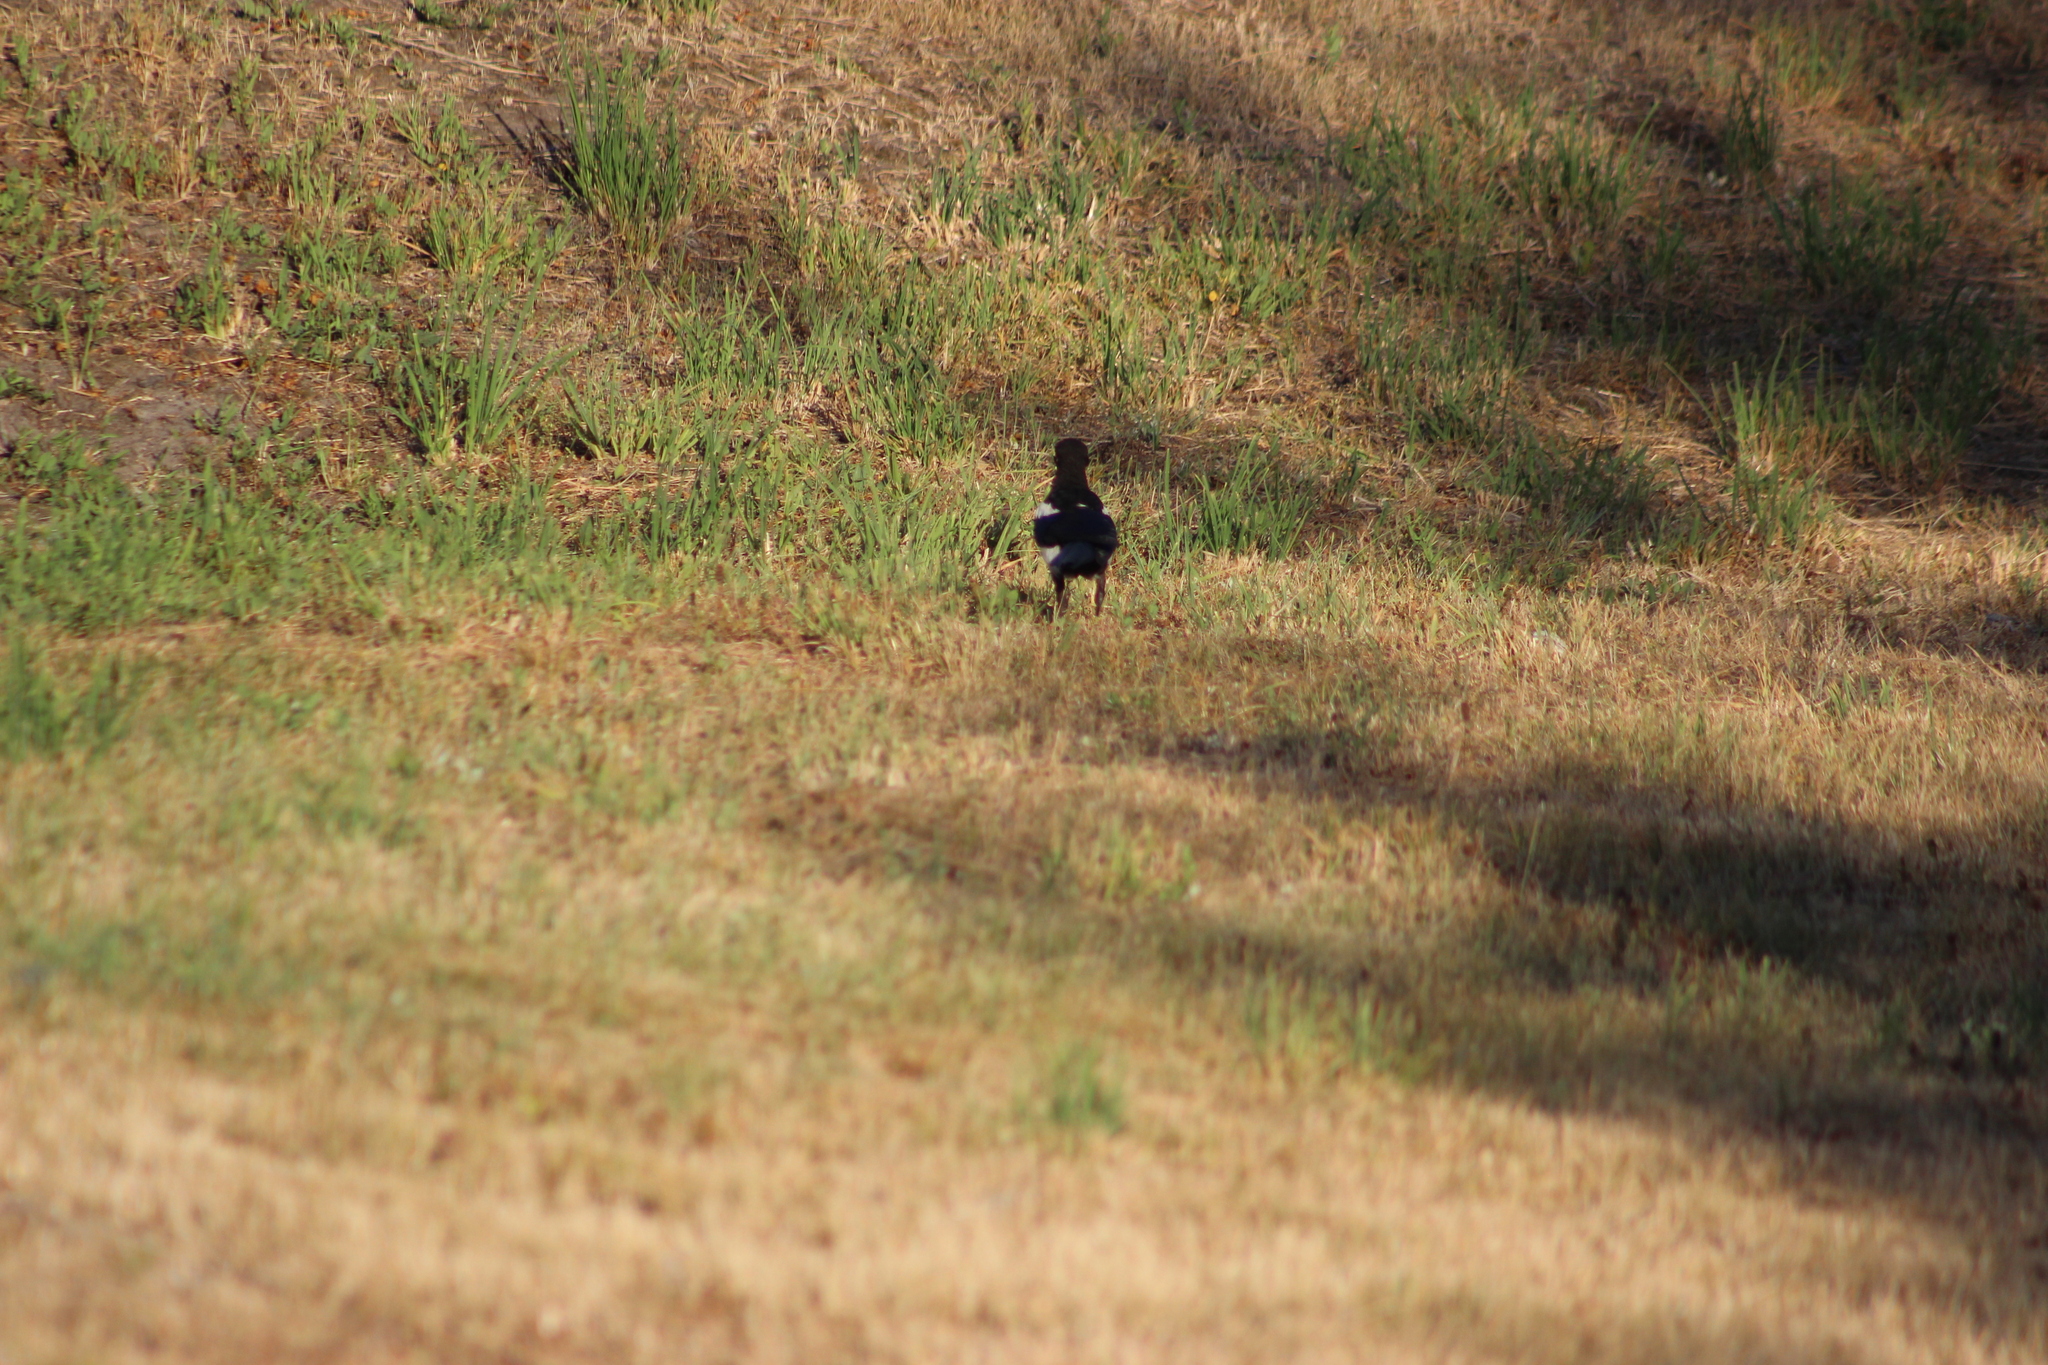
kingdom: Animalia
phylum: Chordata
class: Aves
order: Passeriformes
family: Corvidae
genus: Pica
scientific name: Pica pica
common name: Eurasian magpie
